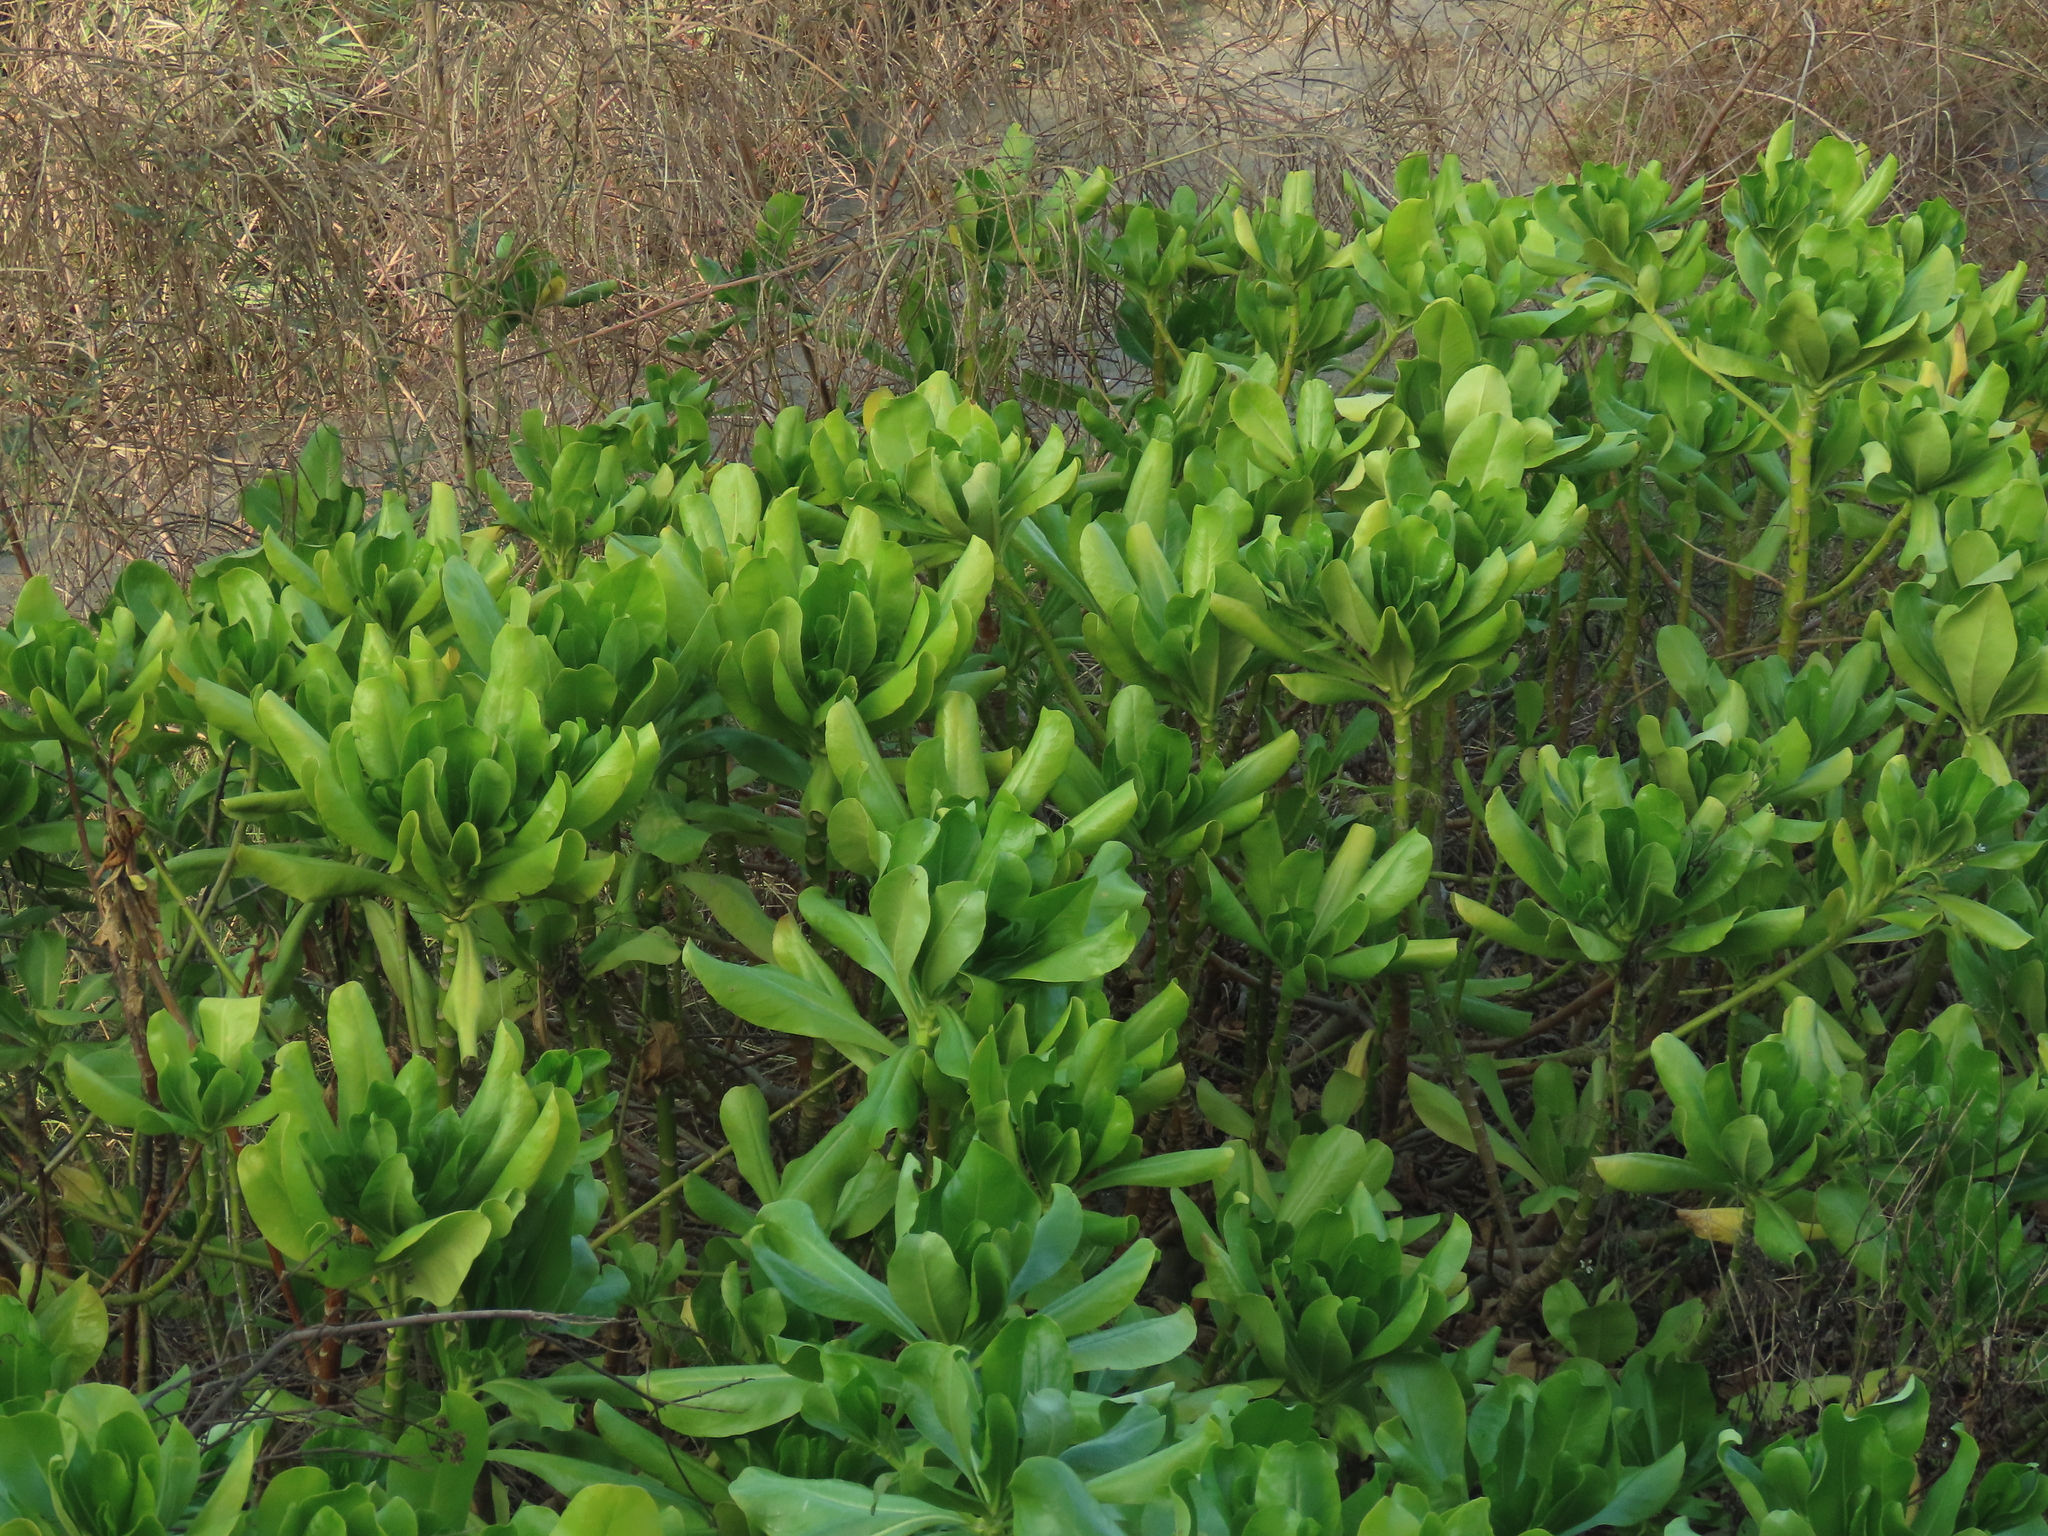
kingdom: Plantae
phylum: Tracheophyta
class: Magnoliopsida
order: Asterales
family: Goodeniaceae
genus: Scaevola
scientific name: Scaevola taccada
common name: Sea lettucetree
